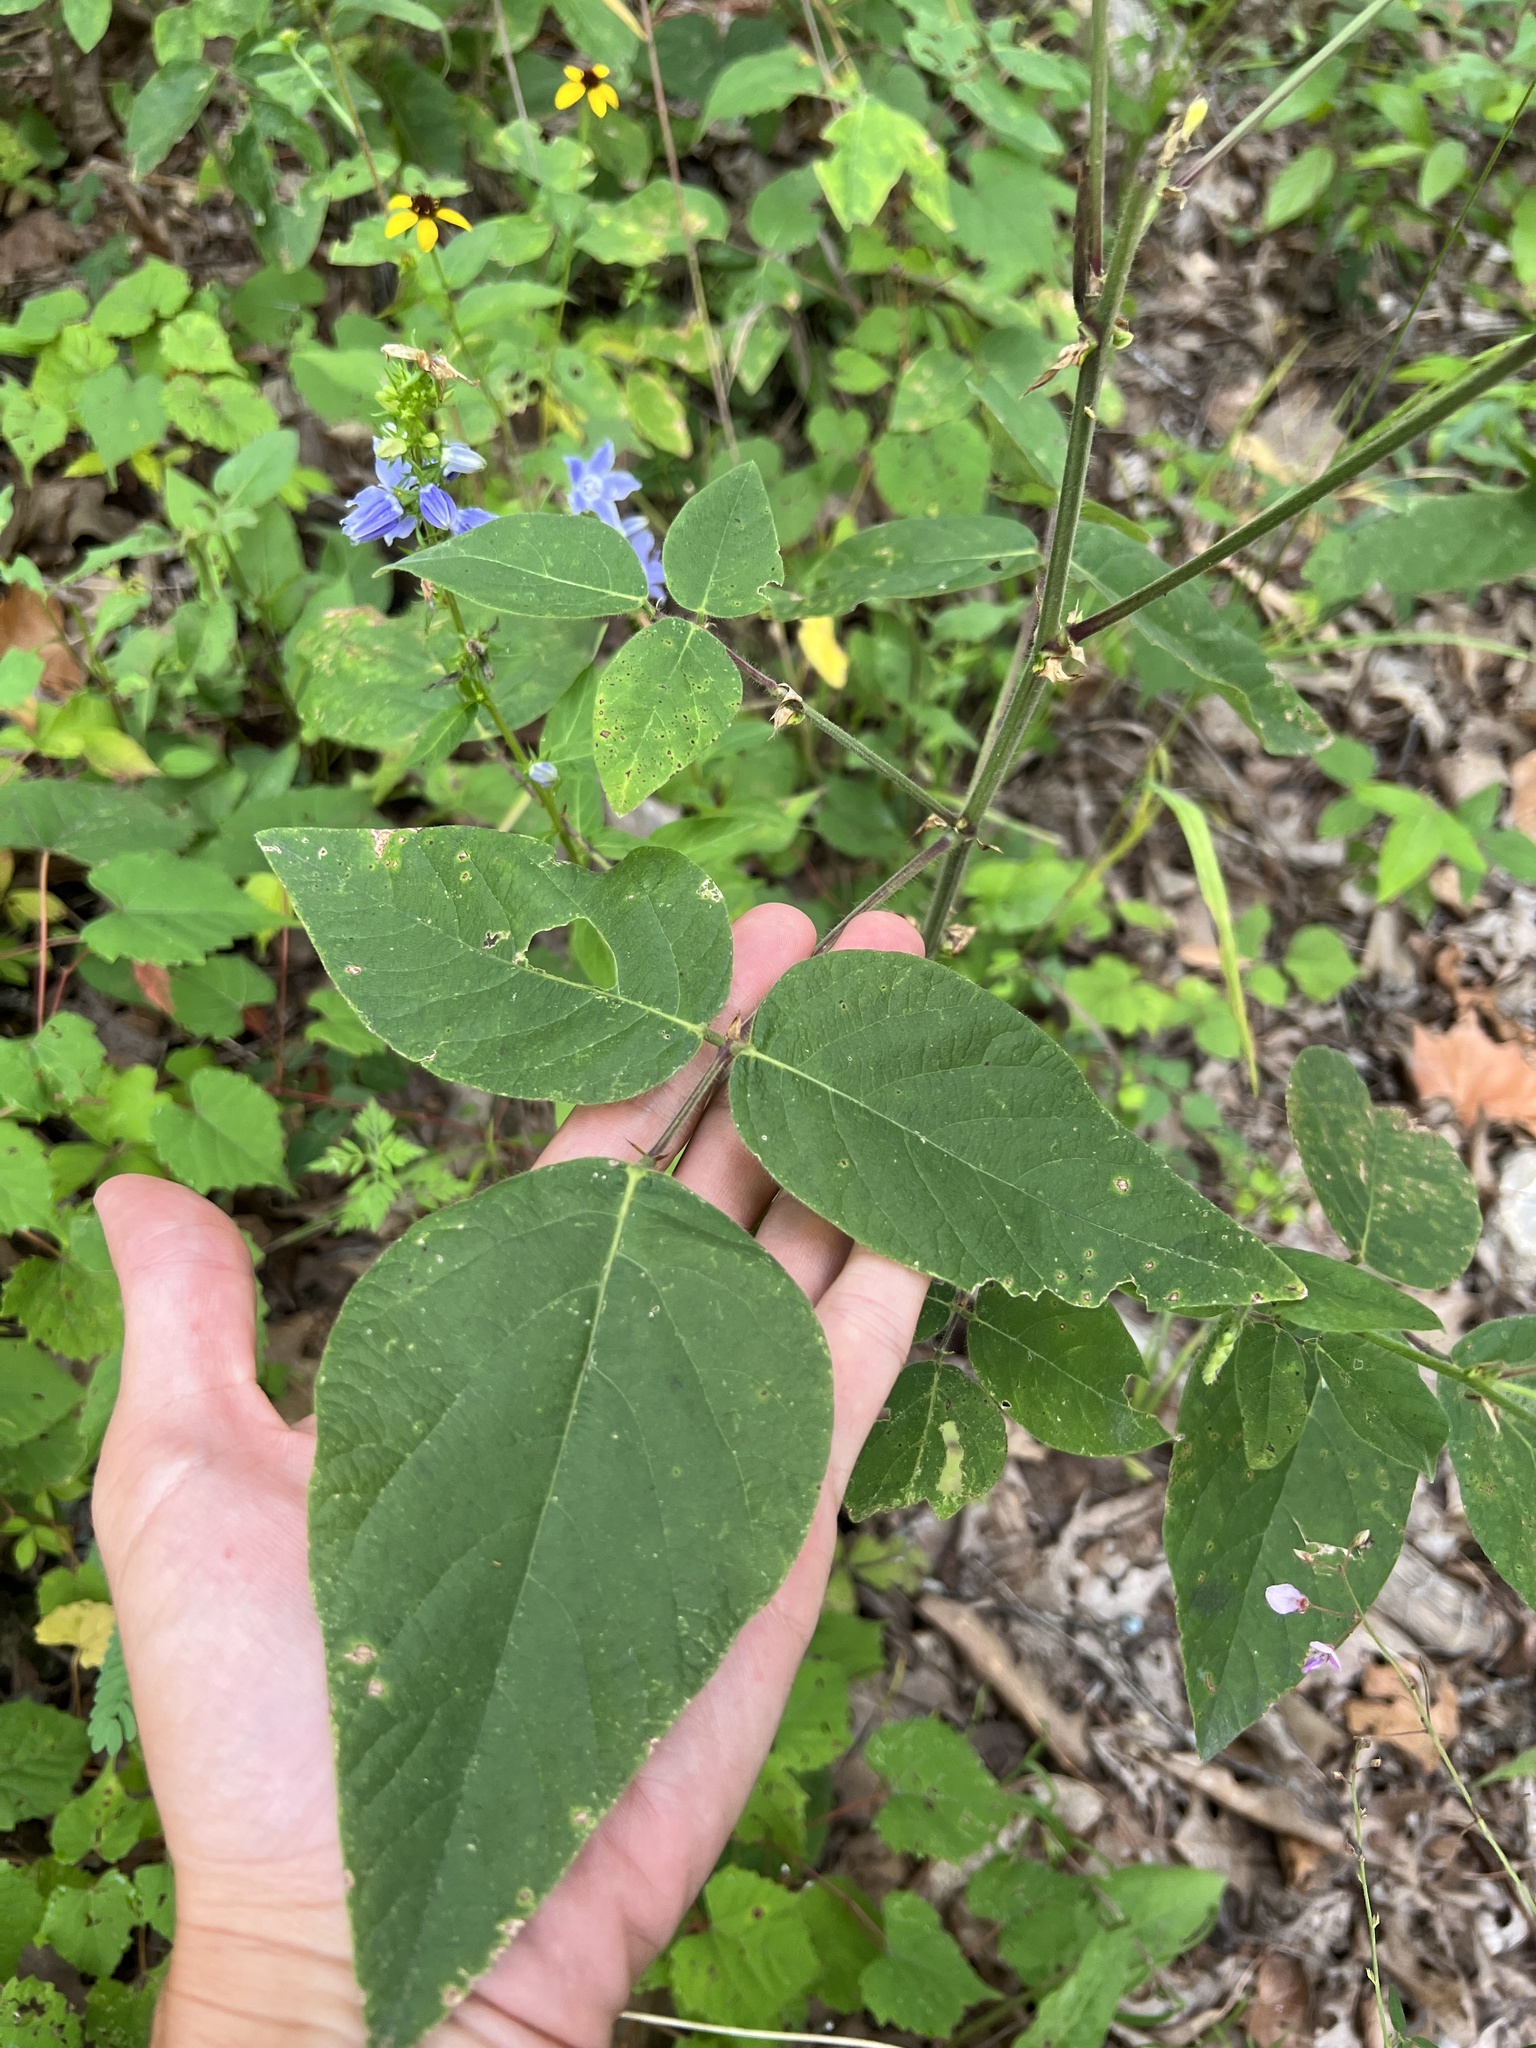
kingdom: Plantae
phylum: Tracheophyta
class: Magnoliopsida
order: Fabales
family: Fabaceae
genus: Desmodium
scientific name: Desmodium canescens
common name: Hoary tick-clover
